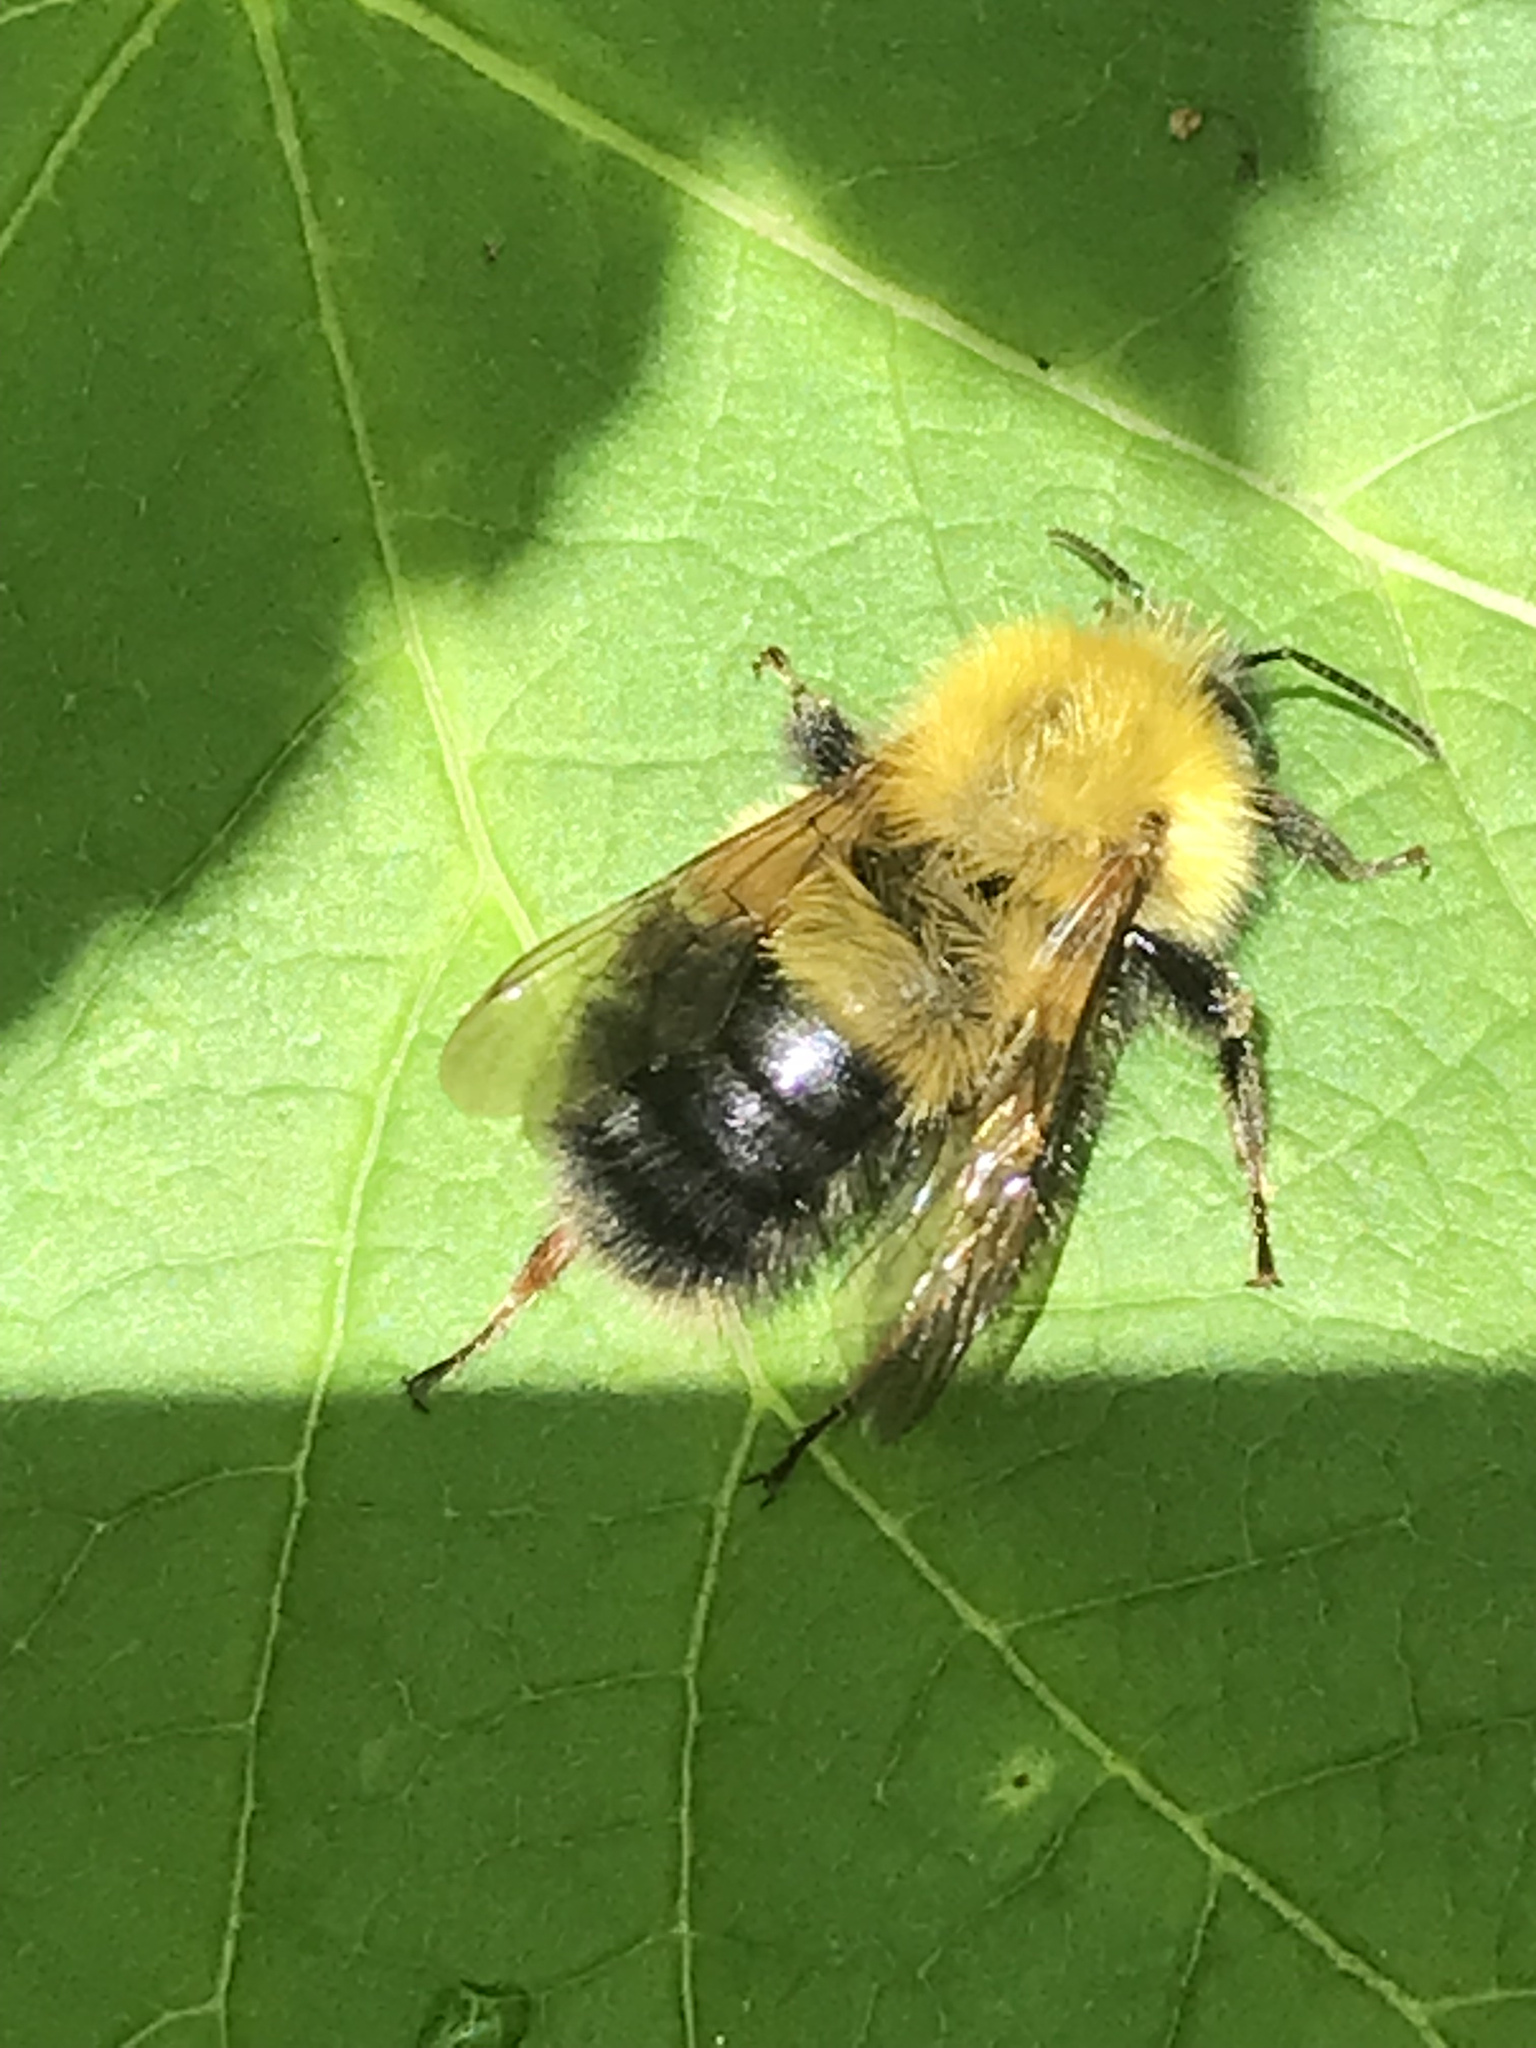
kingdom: Animalia
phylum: Arthropoda
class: Insecta
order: Hymenoptera
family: Apidae
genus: Bombus
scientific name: Bombus perplexus
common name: Confusing bumble bee
